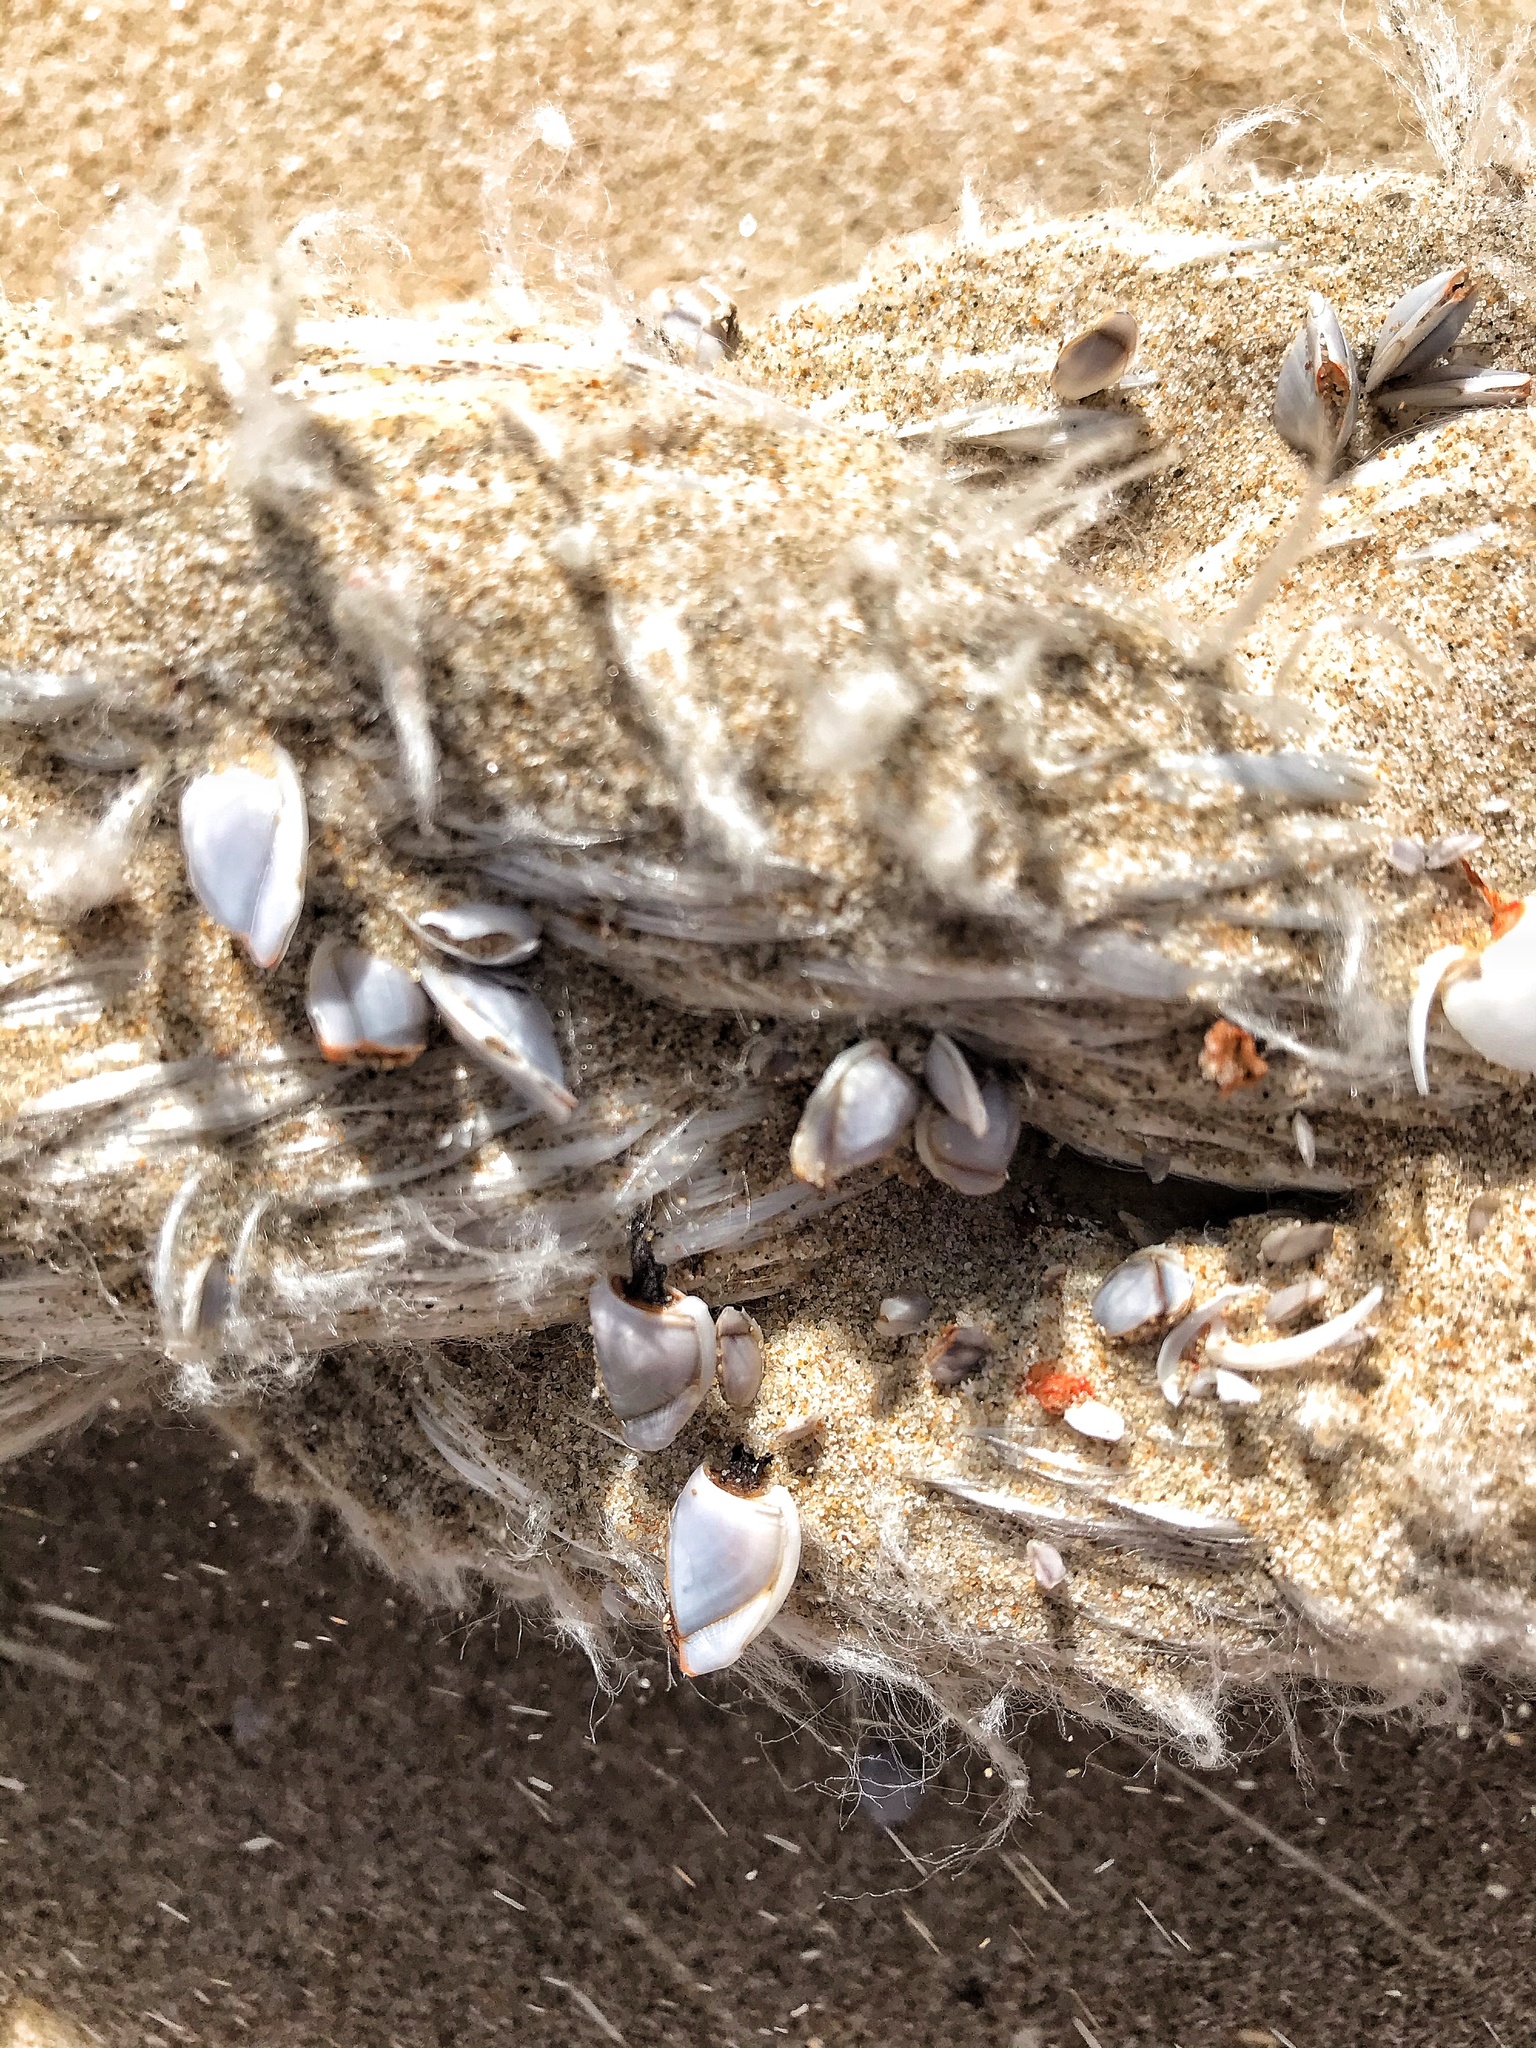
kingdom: Animalia
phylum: Arthropoda
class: Maxillopoda
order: Pedunculata
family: Lepadidae
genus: Lepas
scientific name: Lepas anserifera
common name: Goose barnacle
